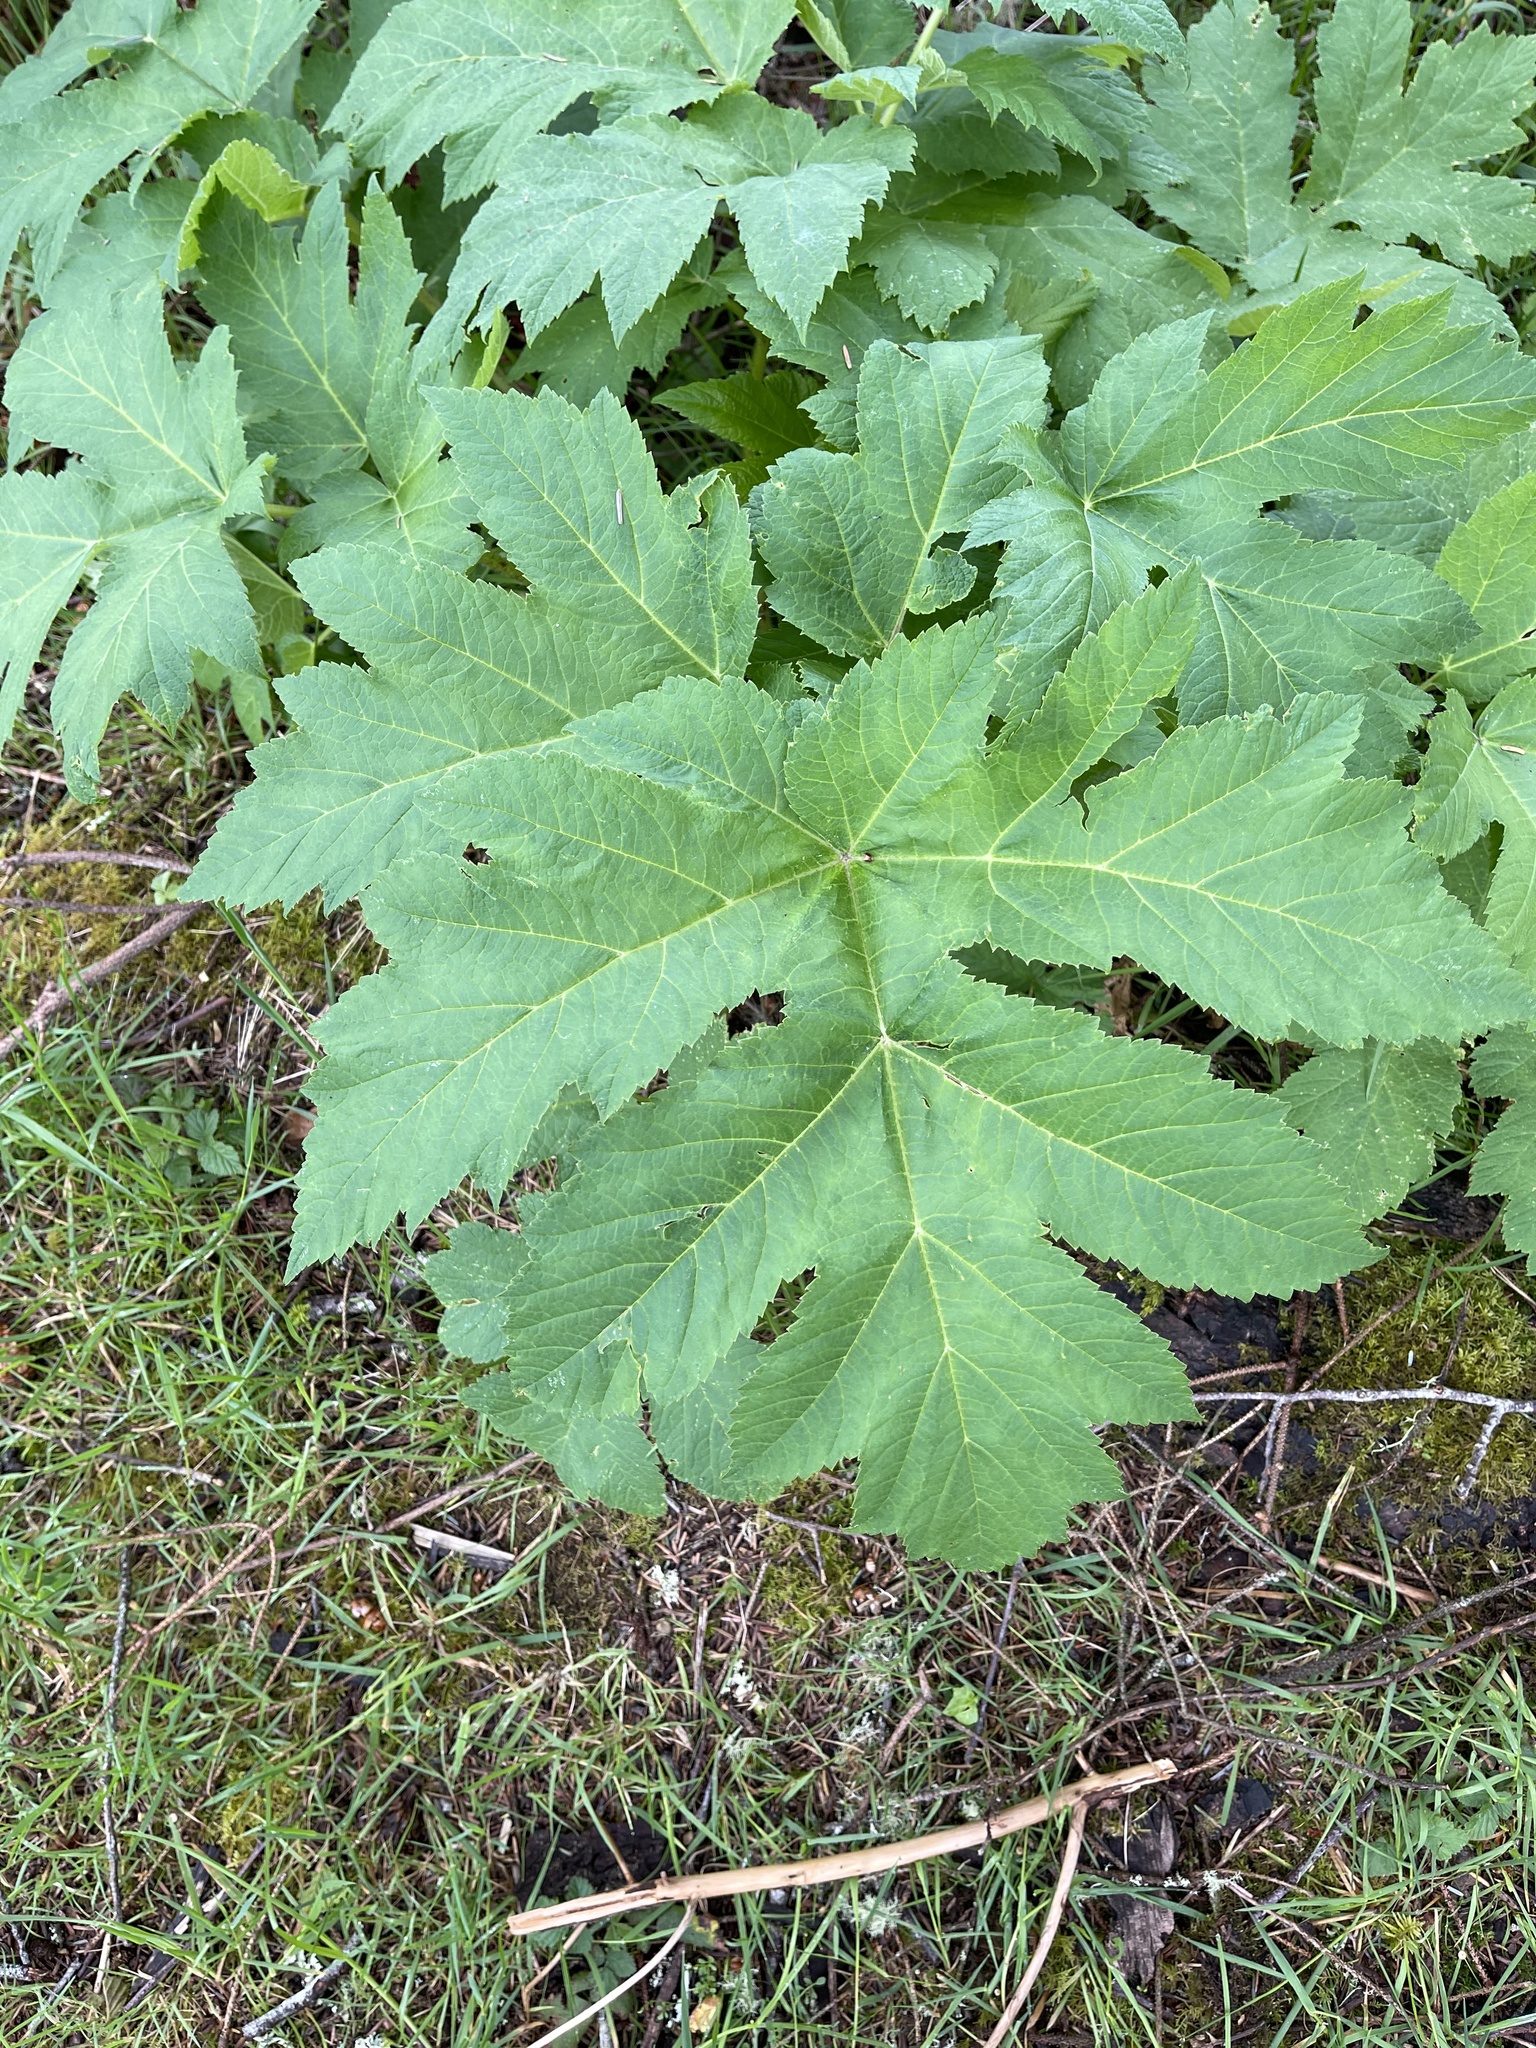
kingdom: Plantae
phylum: Tracheophyta
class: Magnoliopsida
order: Apiales
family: Apiaceae
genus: Heracleum
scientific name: Heracleum maximum
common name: American cow parsnip
